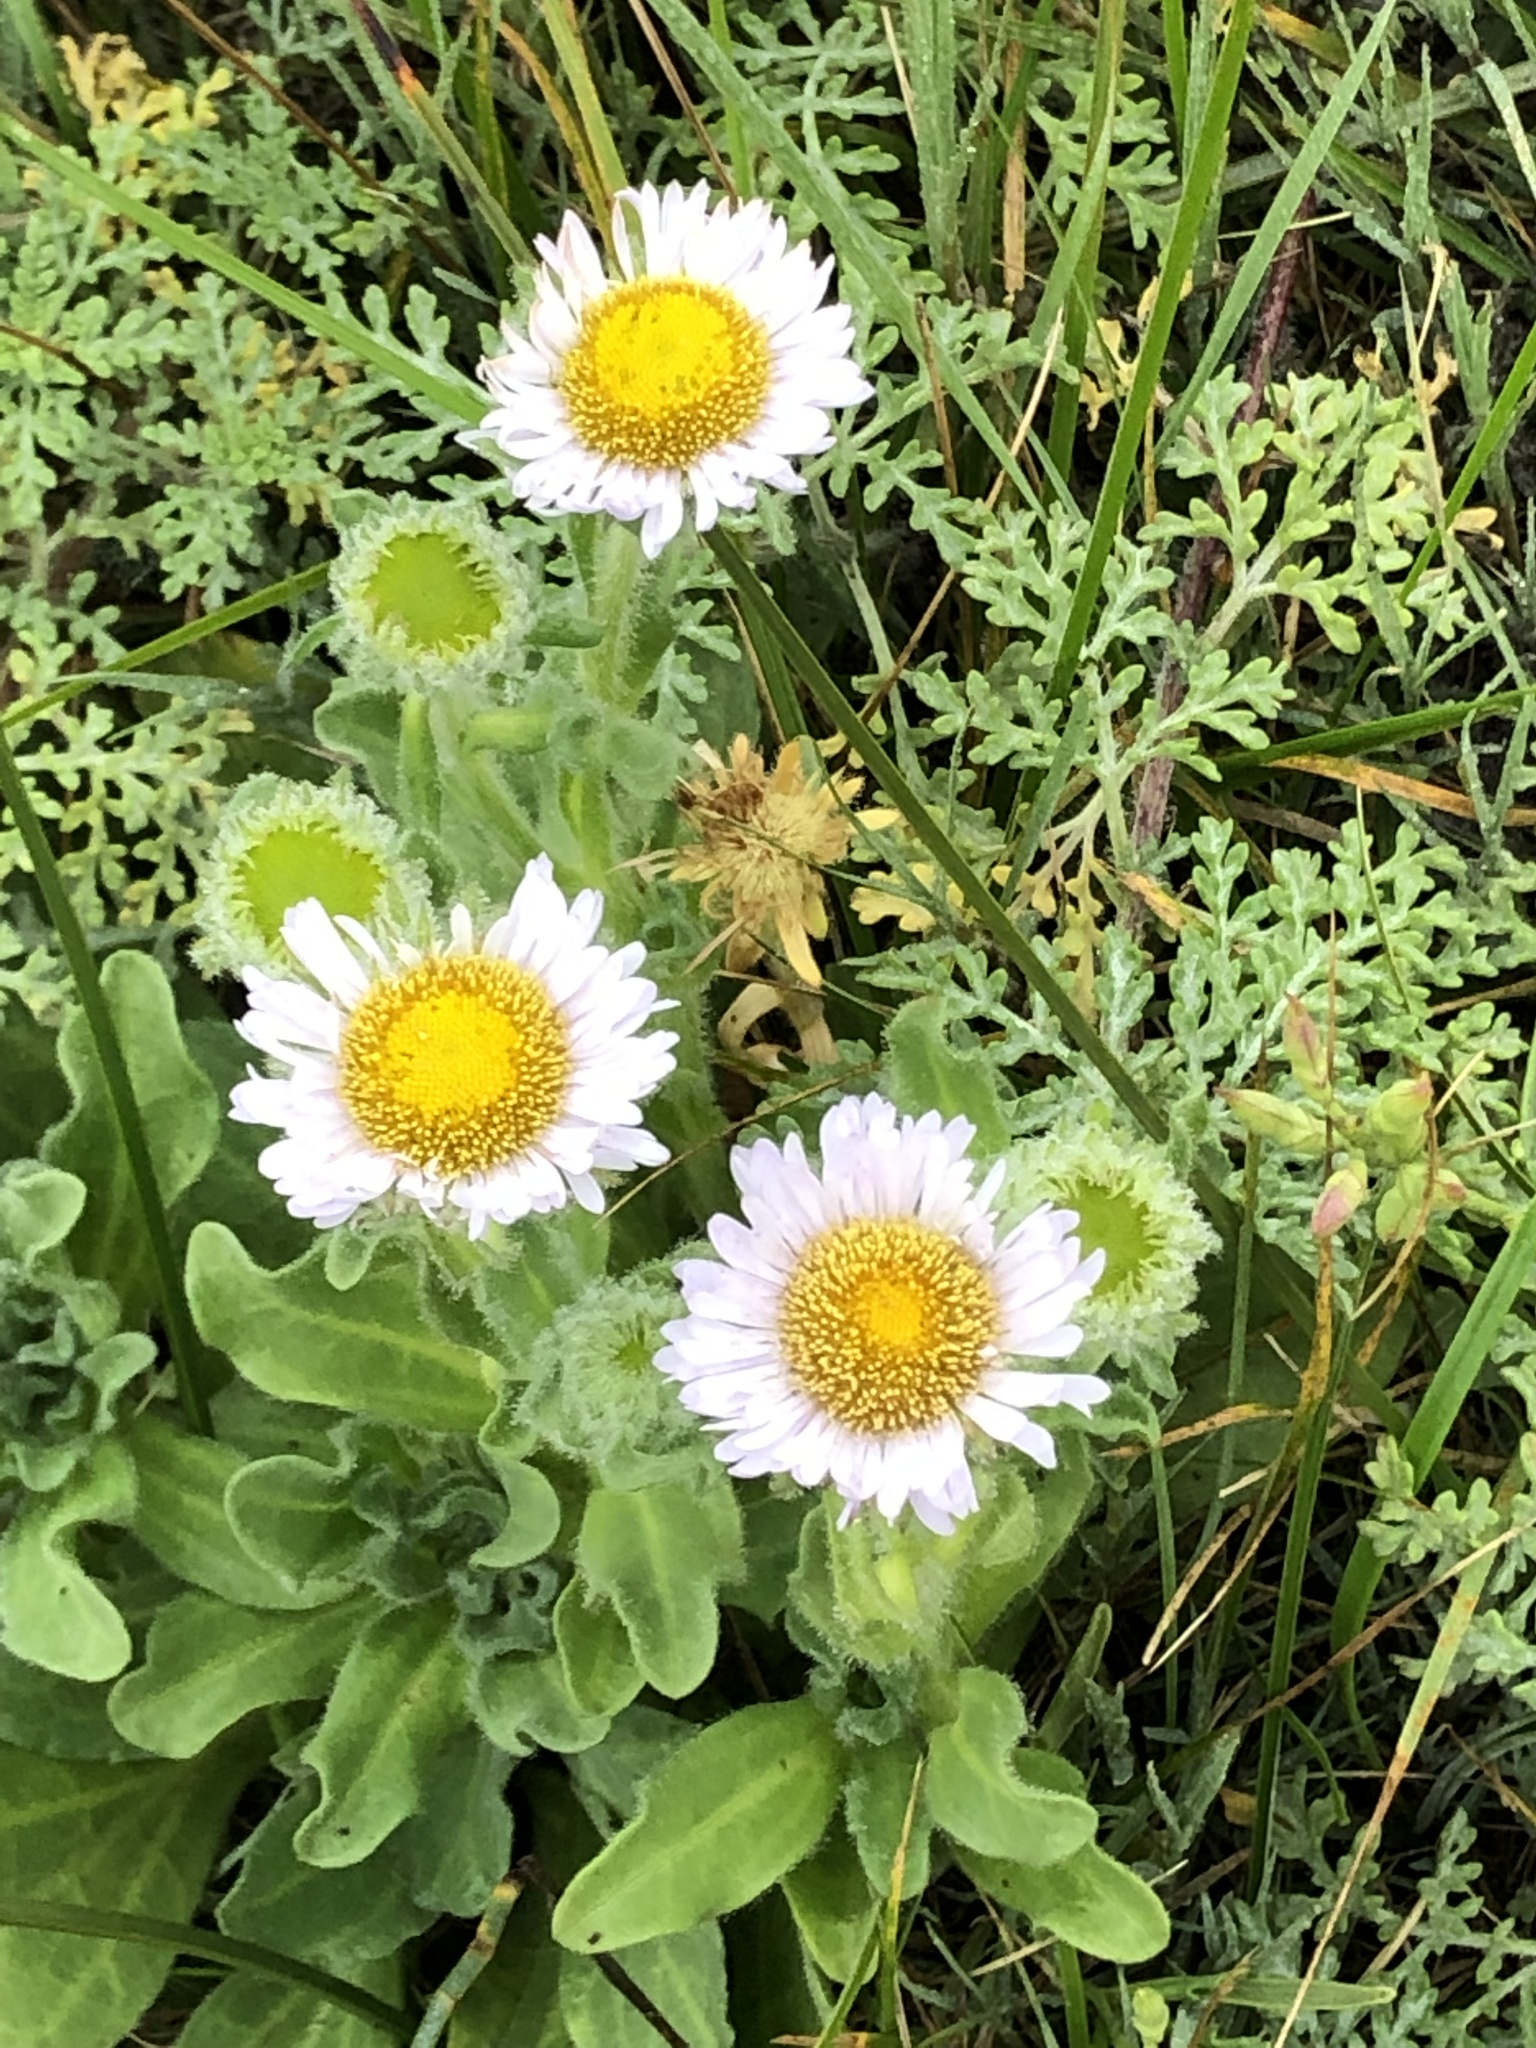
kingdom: Plantae
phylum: Tracheophyta
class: Magnoliopsida
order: Asterales
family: Asteraceae
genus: Erigeron
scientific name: Erigeron glaucus
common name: Seaside daisy
